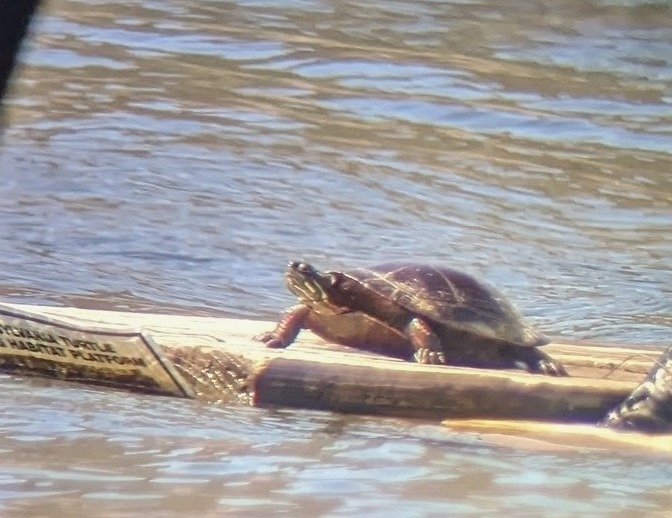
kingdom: Animalia
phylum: Chordata
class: Testudines
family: Emydidae
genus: Chrysemys
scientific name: Chrysemys picta
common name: Painted turtle
